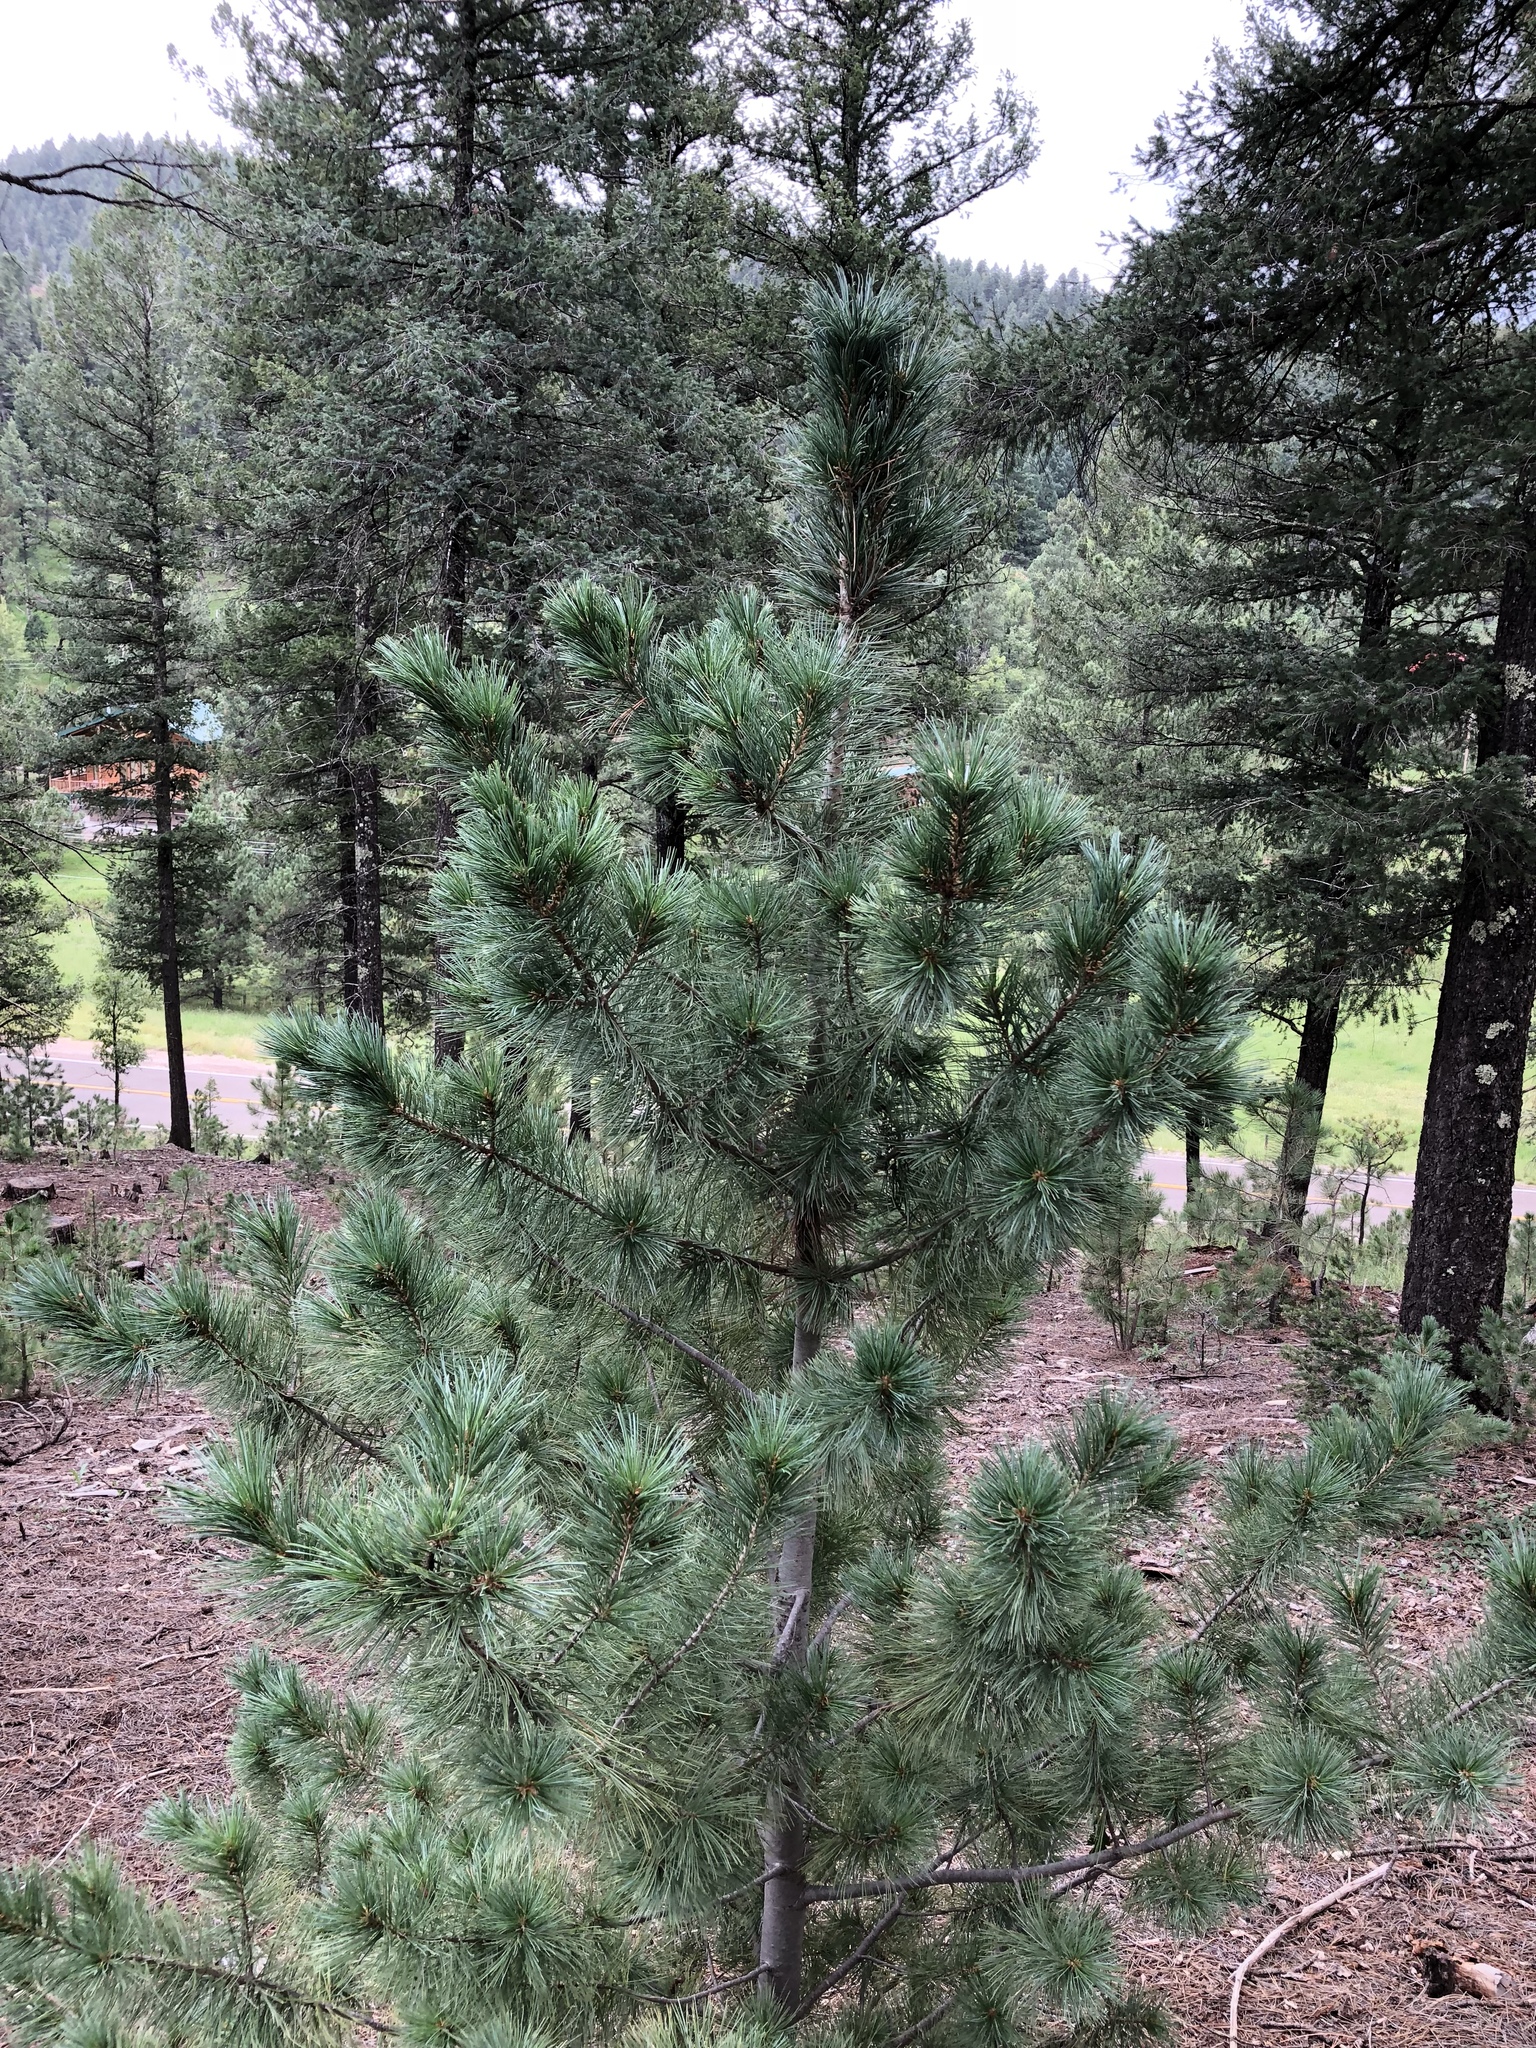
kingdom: Plantae
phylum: Tracheophyta
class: Pinopsida
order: Pinales
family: Pinaceae
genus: Pinus
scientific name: Pinus strobiformis
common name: Southwestern white pine
